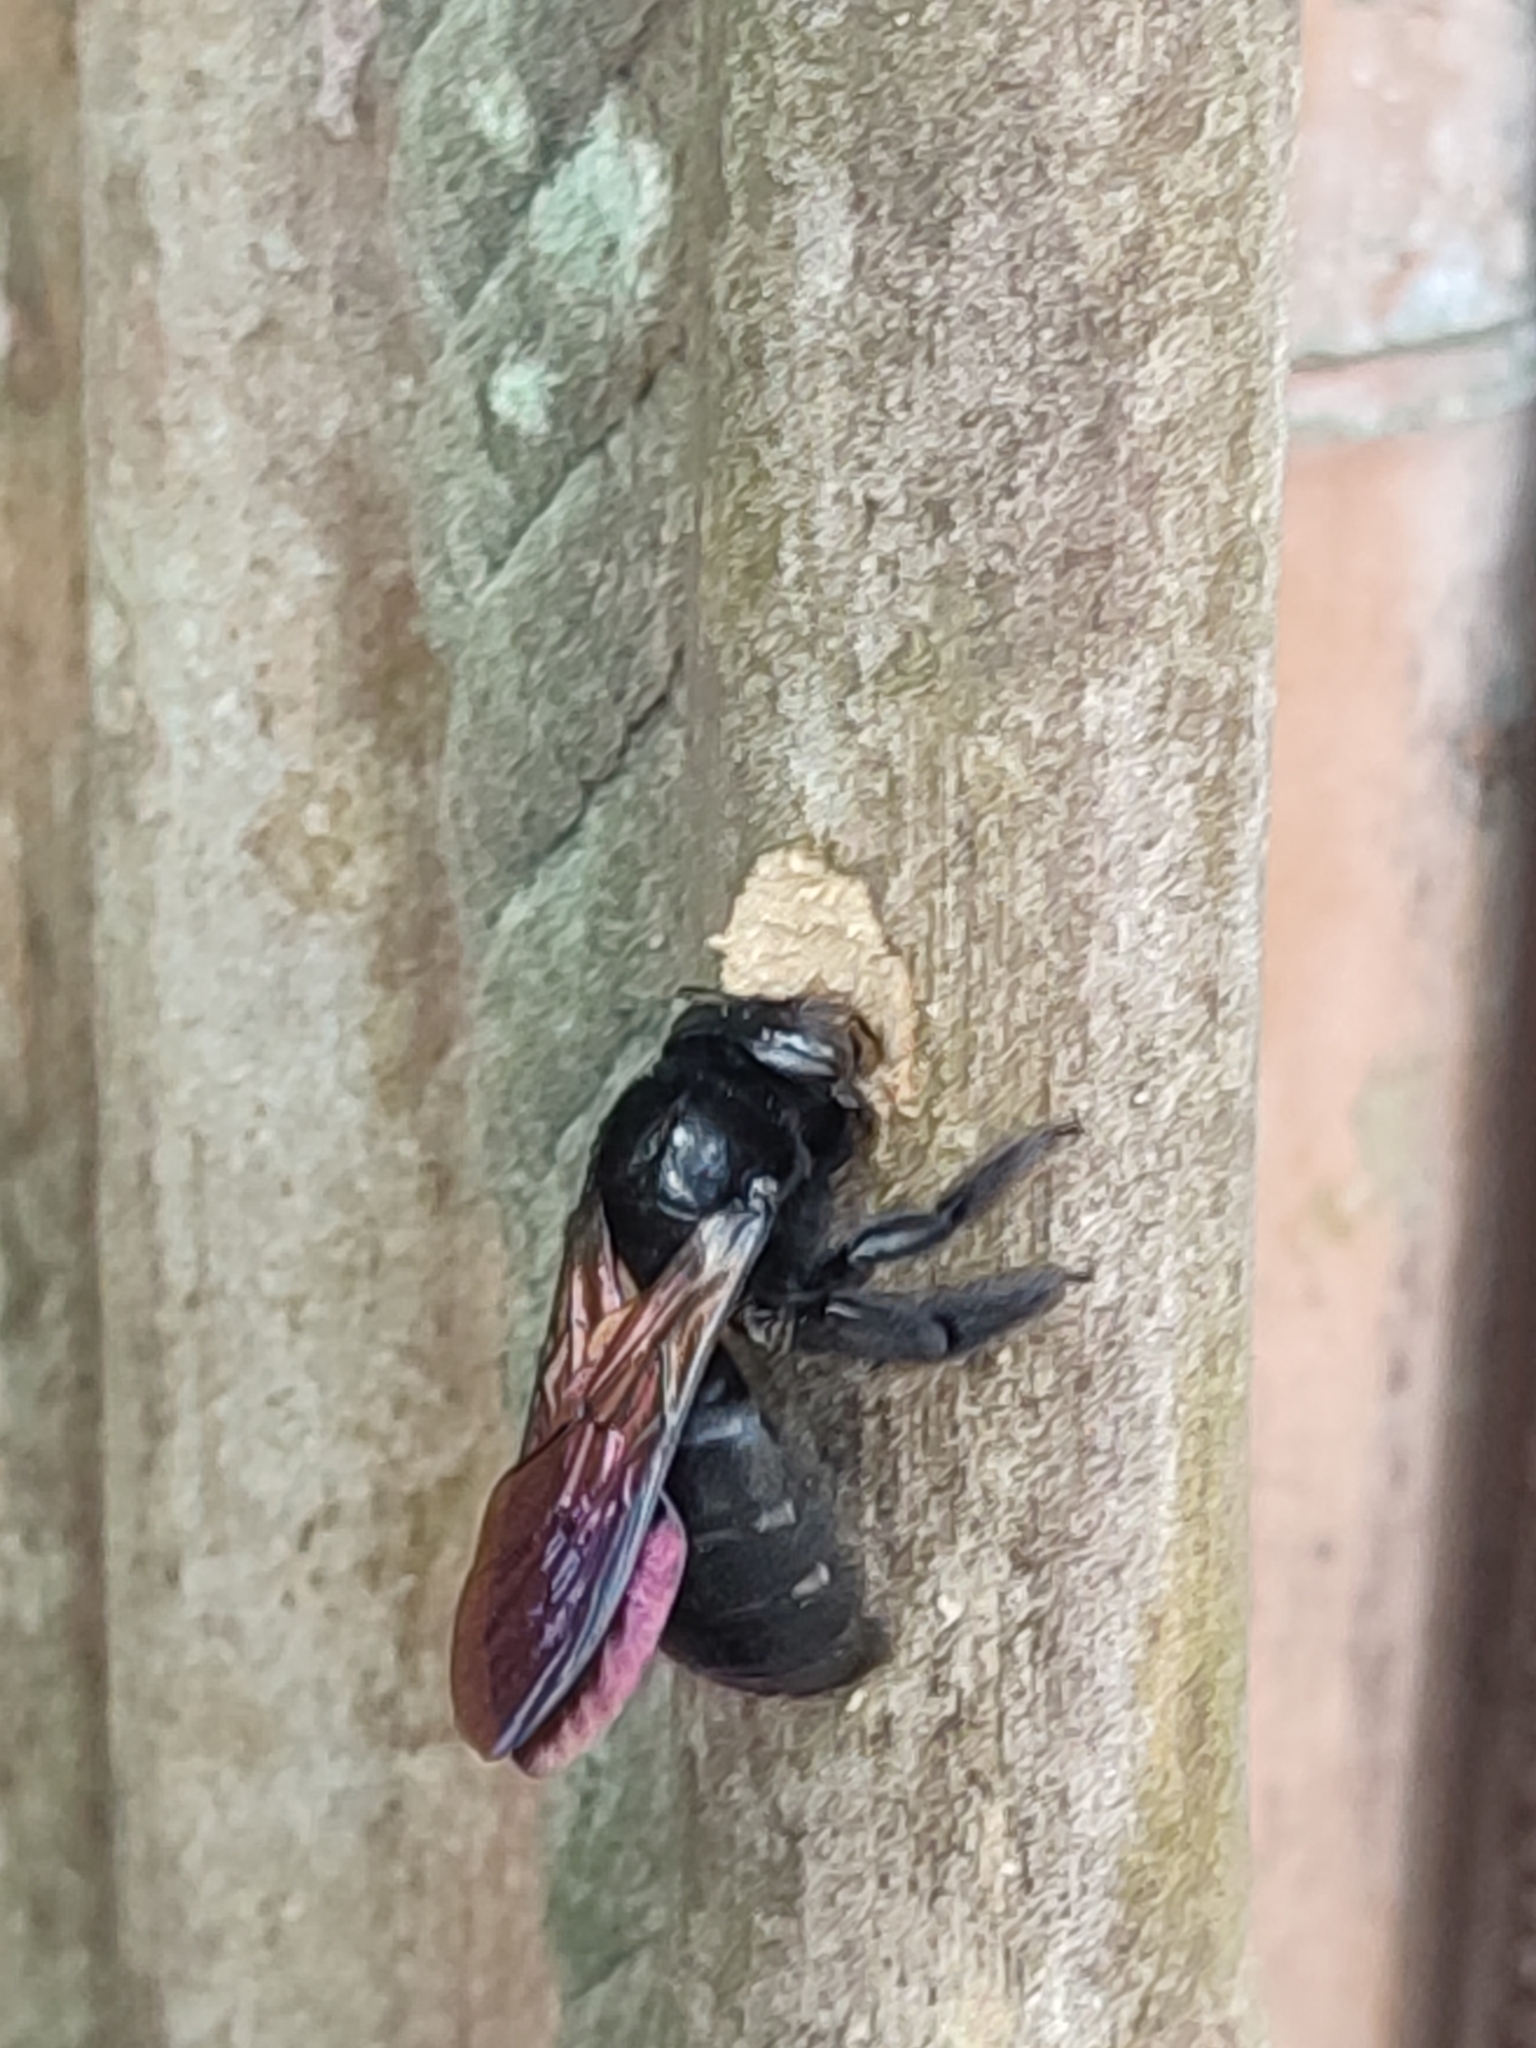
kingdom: Animalia
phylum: Arthropoda
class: Insecta
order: Hymenoptera
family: Apidae
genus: Xylocopa
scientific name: Xylocopa tranquebarorum
